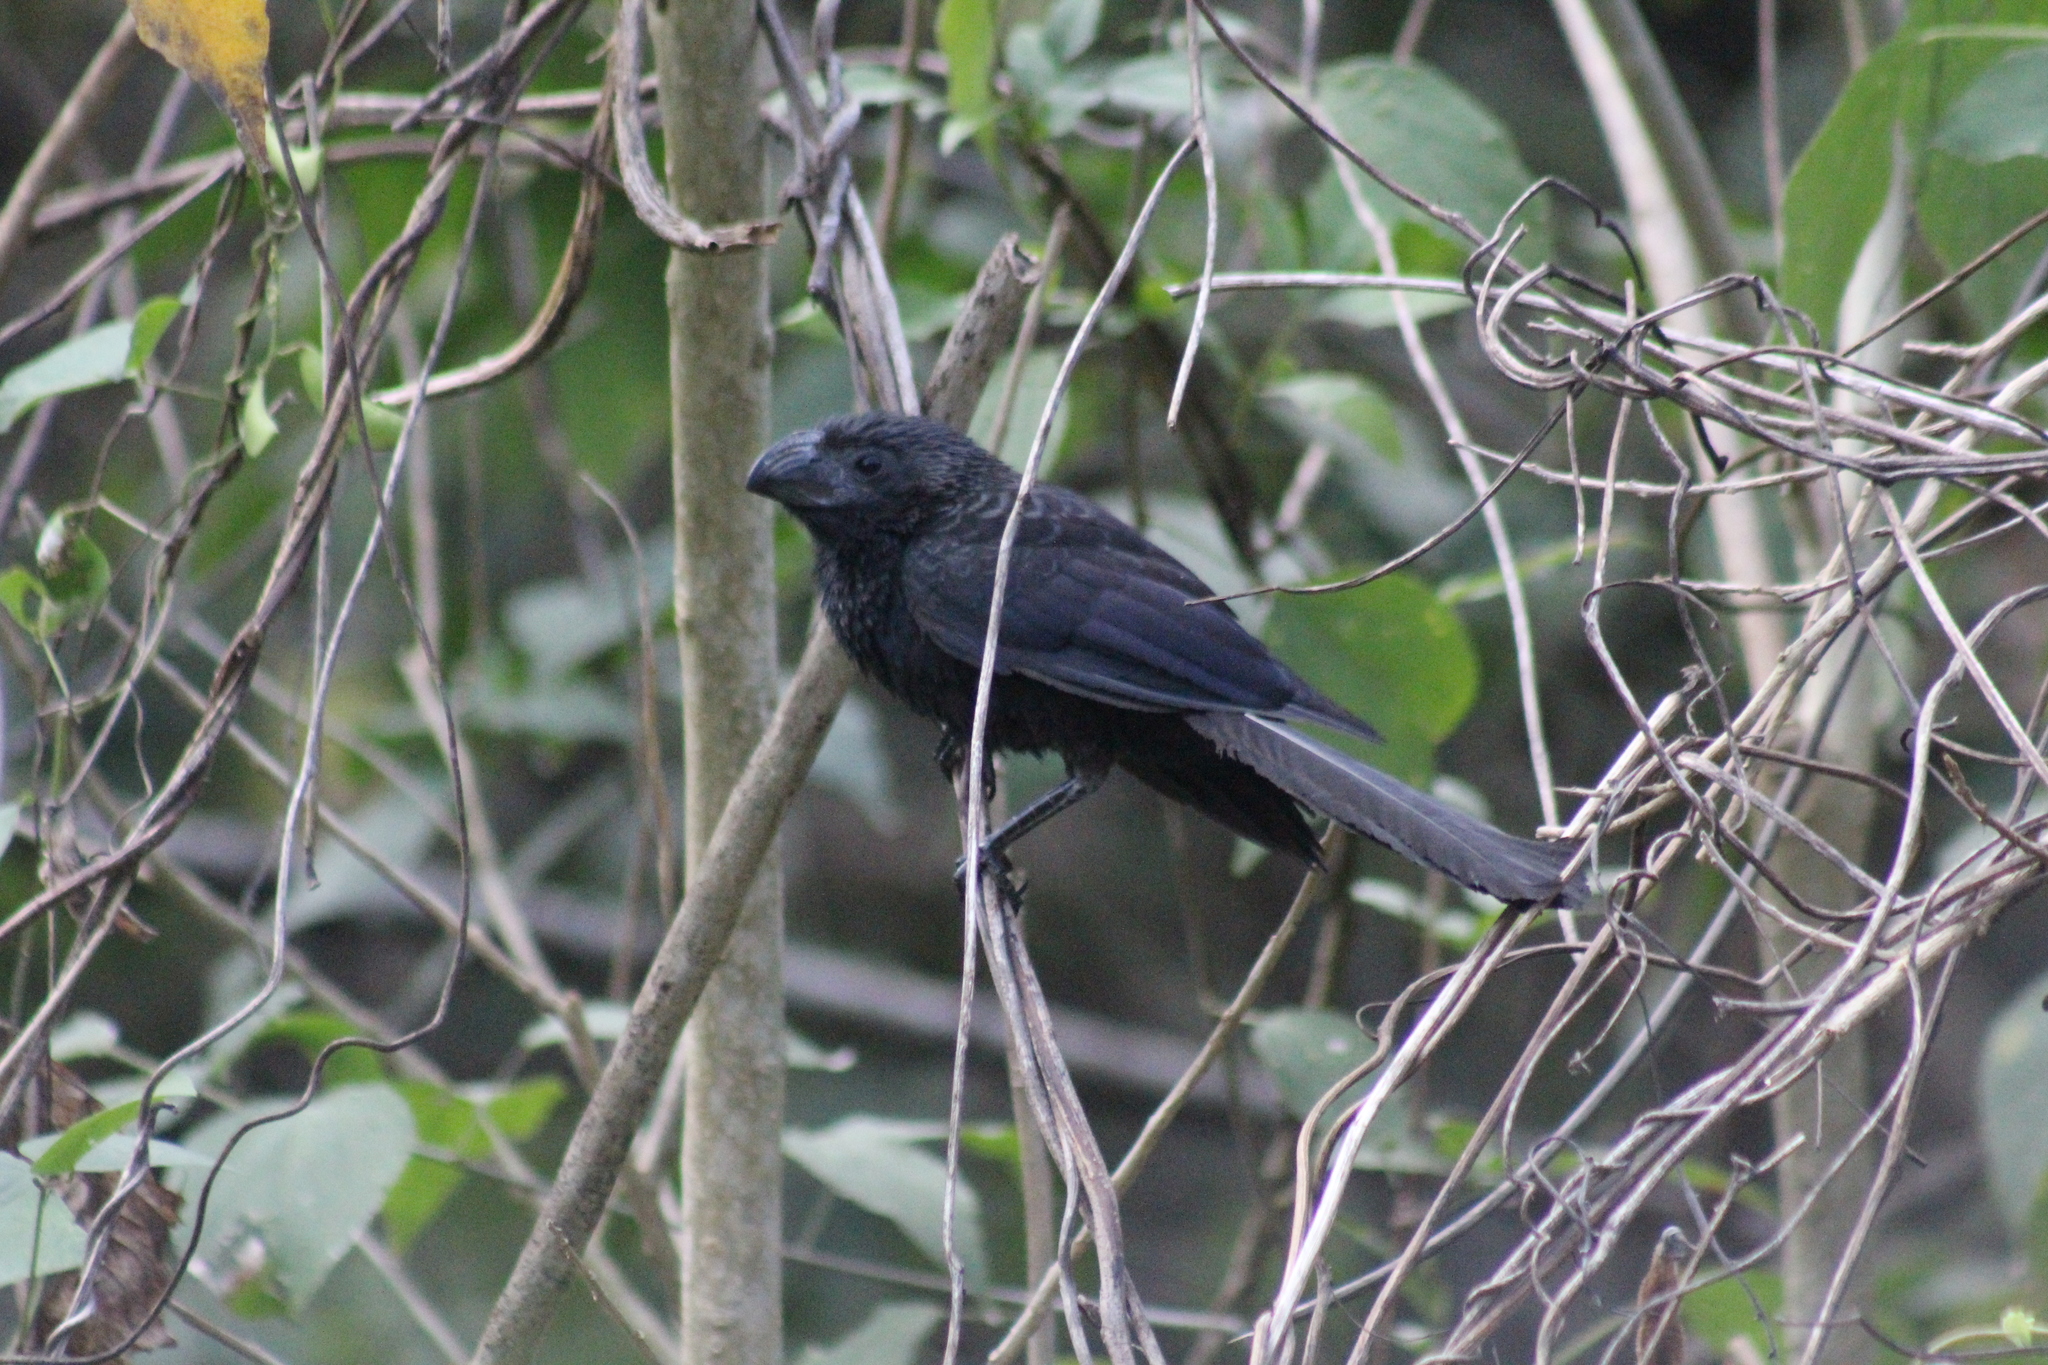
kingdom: Animalia
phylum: Chordata
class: Aves
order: Cuculiformes
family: Cuculidae
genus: Crotophaga
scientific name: Crotophaga sulcirostris
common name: Groove-billed ani
